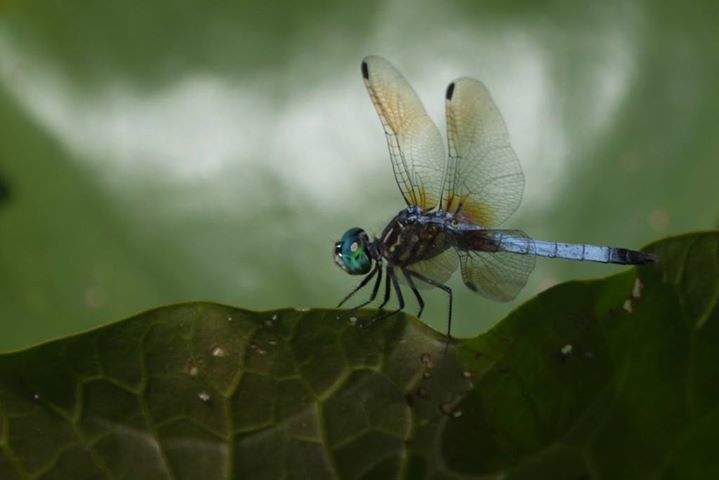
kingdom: Animalia
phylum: Arthropoda
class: Insecta
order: Odonata
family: Libellulidae
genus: Pachydiplax
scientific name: Pachydiplax longipennis
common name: Blue dasher
